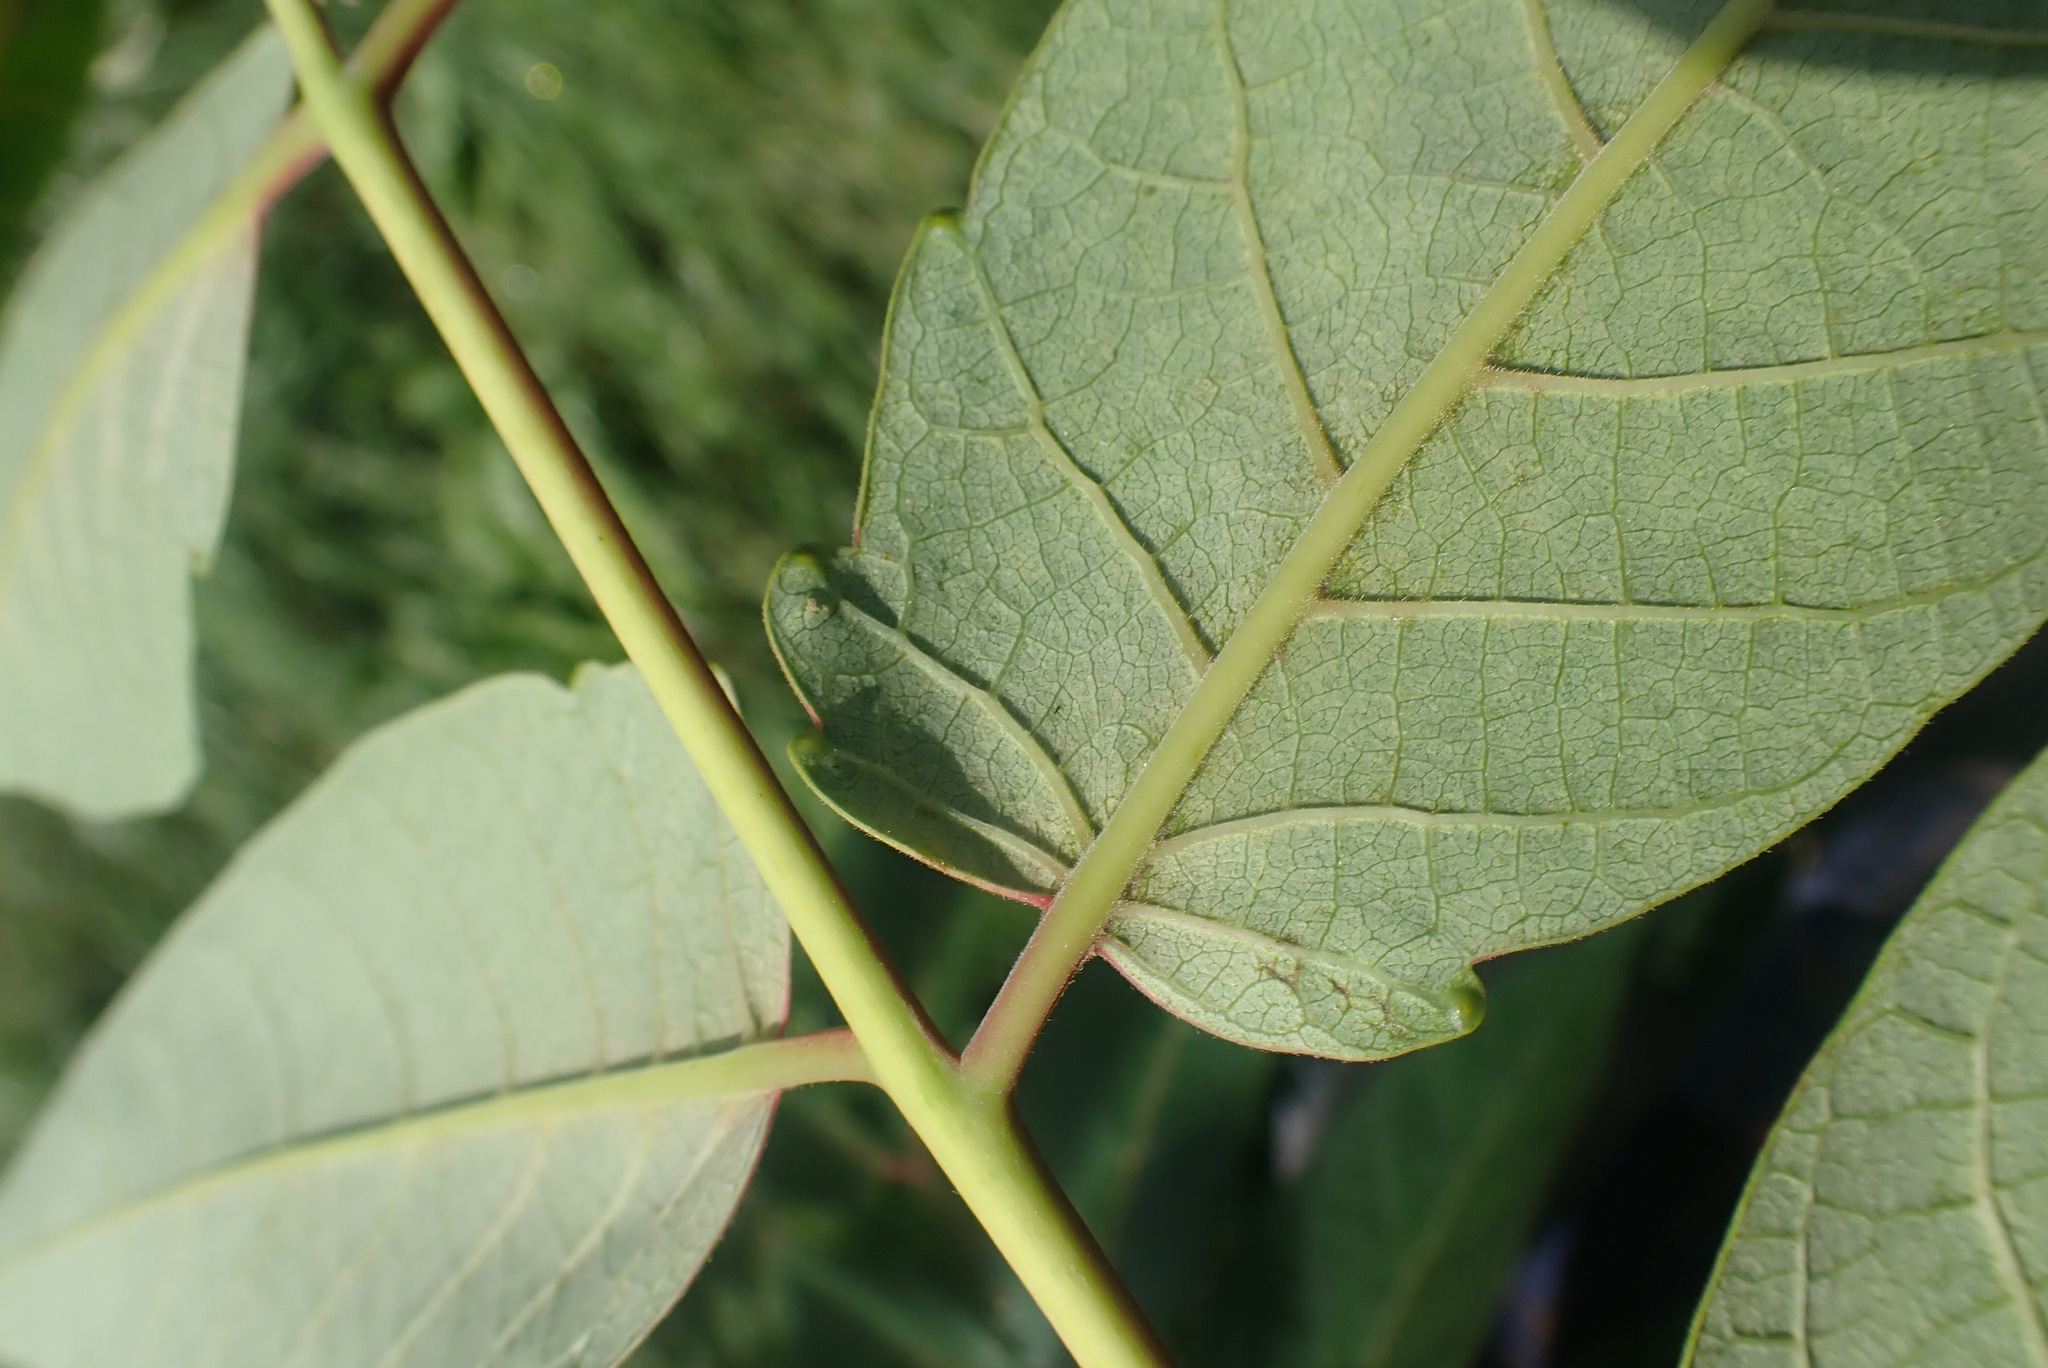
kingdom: Plantae
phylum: Tracheophyta
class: Magnoliopsida
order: Sapindales
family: Simaroubaceae
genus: Ailanthus
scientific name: Ailanthus altissima
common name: Tree-of-heaven
